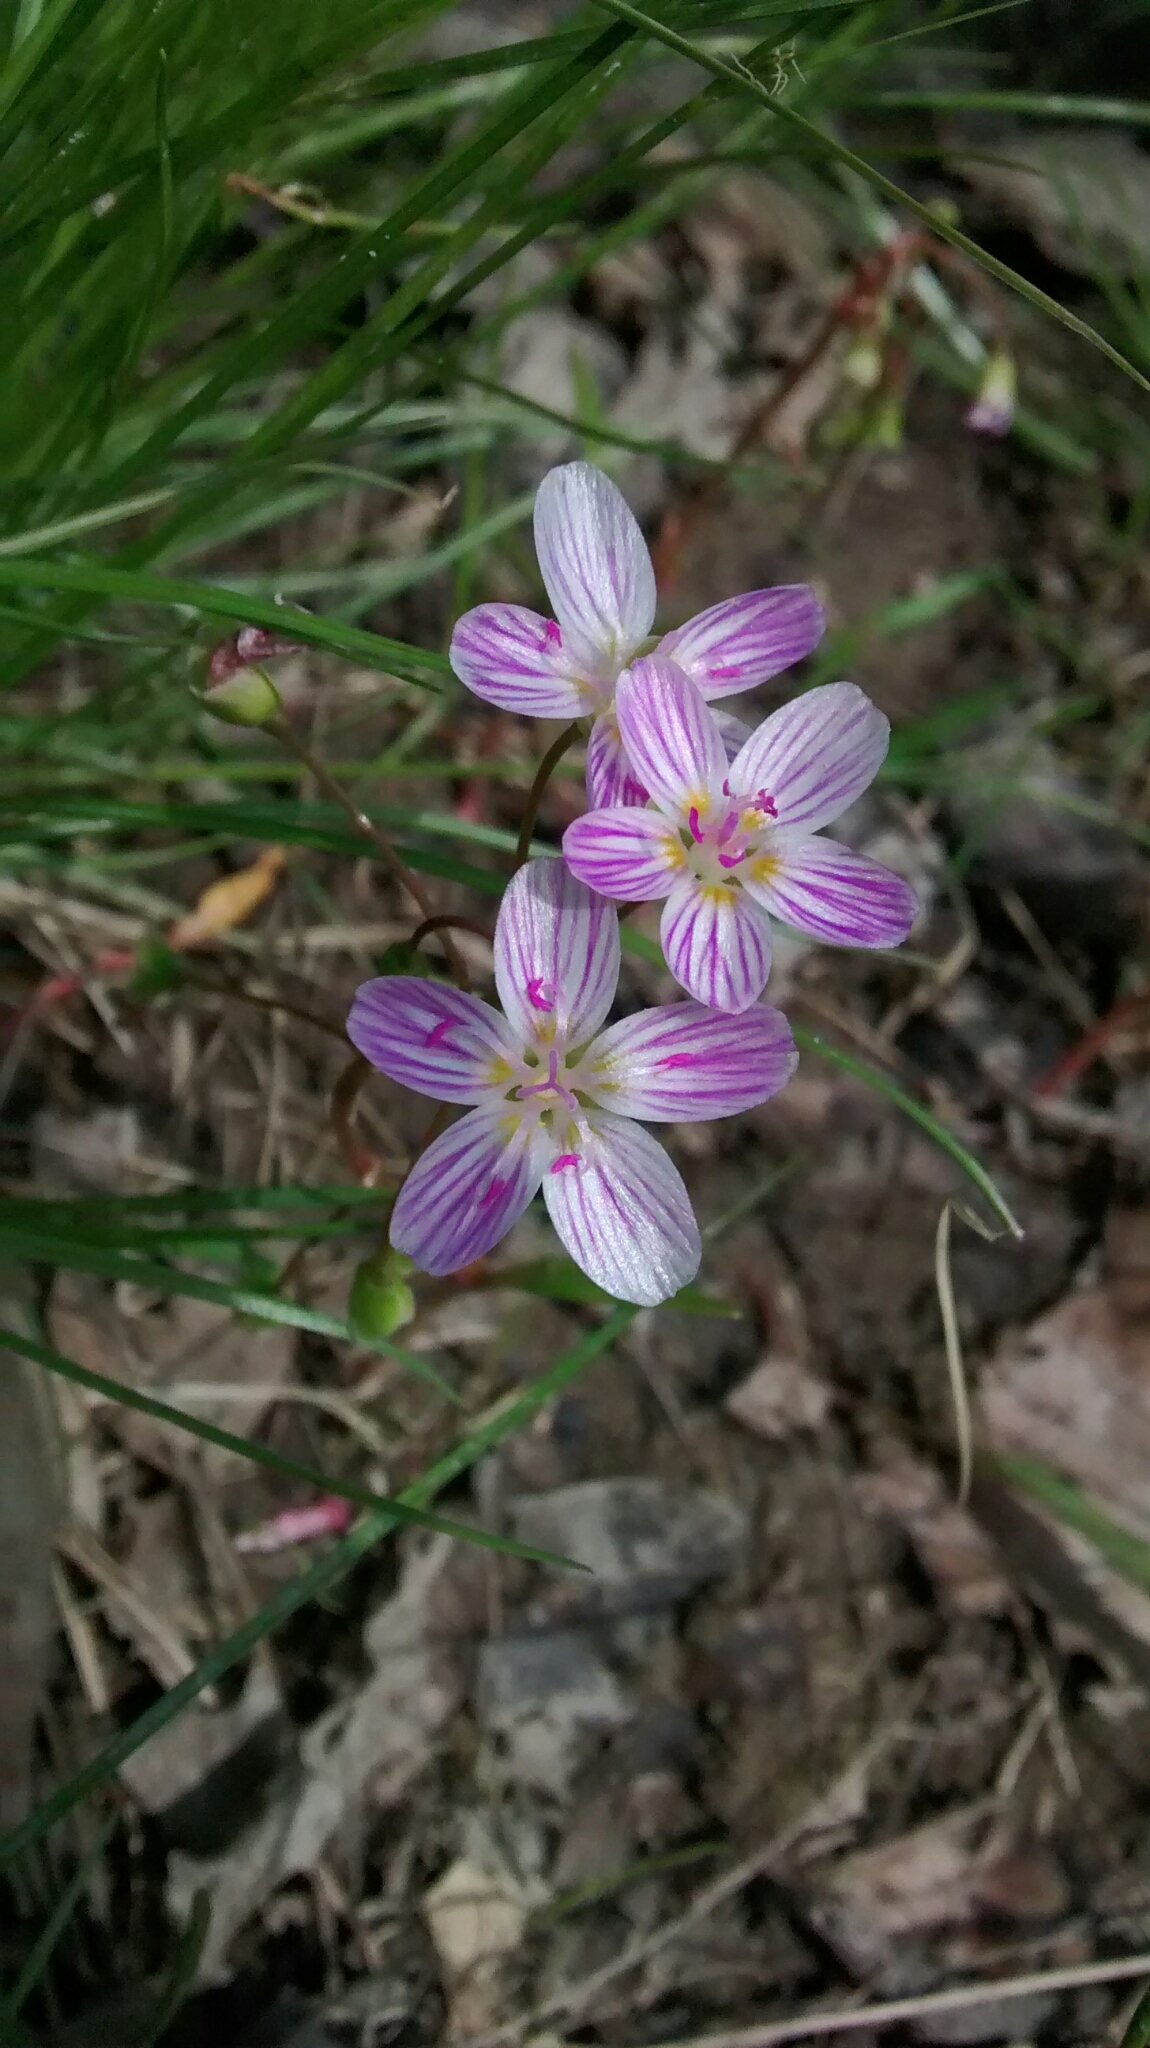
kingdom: Plantae
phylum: Tracheophyta
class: Magnoliopsida
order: Caryophyllales
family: Montiaceae
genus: Claytonia
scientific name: Claytonia virginica
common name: Virginia springbeauty
